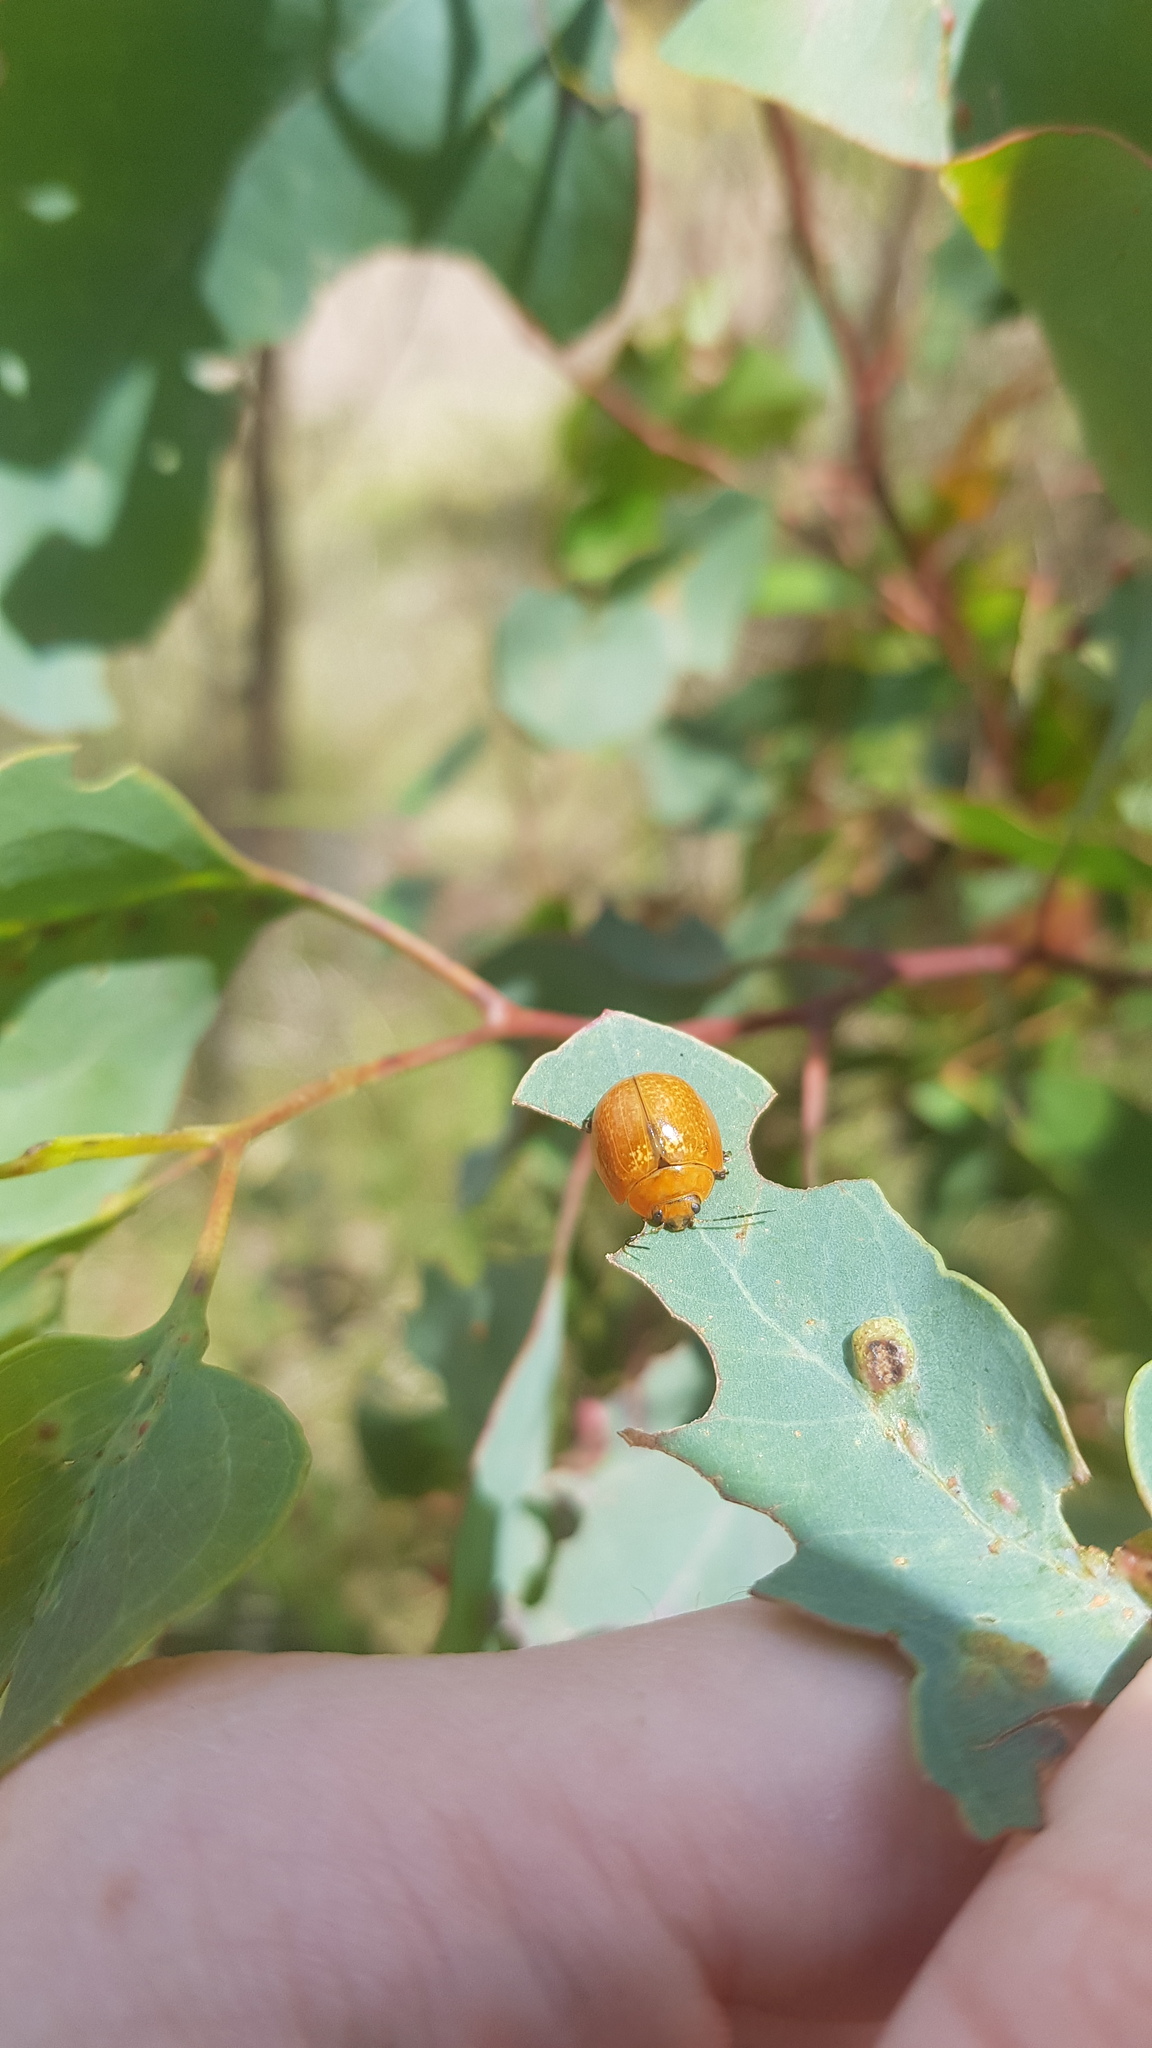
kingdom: Animalia
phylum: Arthropoda
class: Insecta
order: Coleoptera
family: Chrysomelidae
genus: Paropsisterna
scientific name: Paropsisterna cloelia
